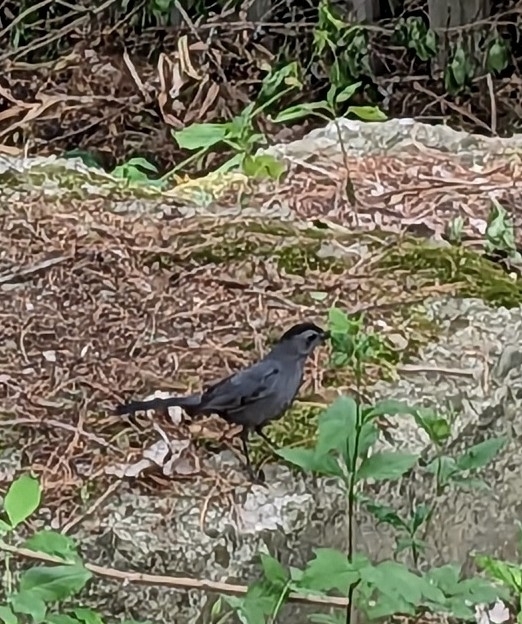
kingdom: Animalia
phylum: Chordata
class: Aves
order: Passeriformes
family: Mimidae
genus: Dumetella
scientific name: Dumetella carolinensis
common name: Gray catbird
